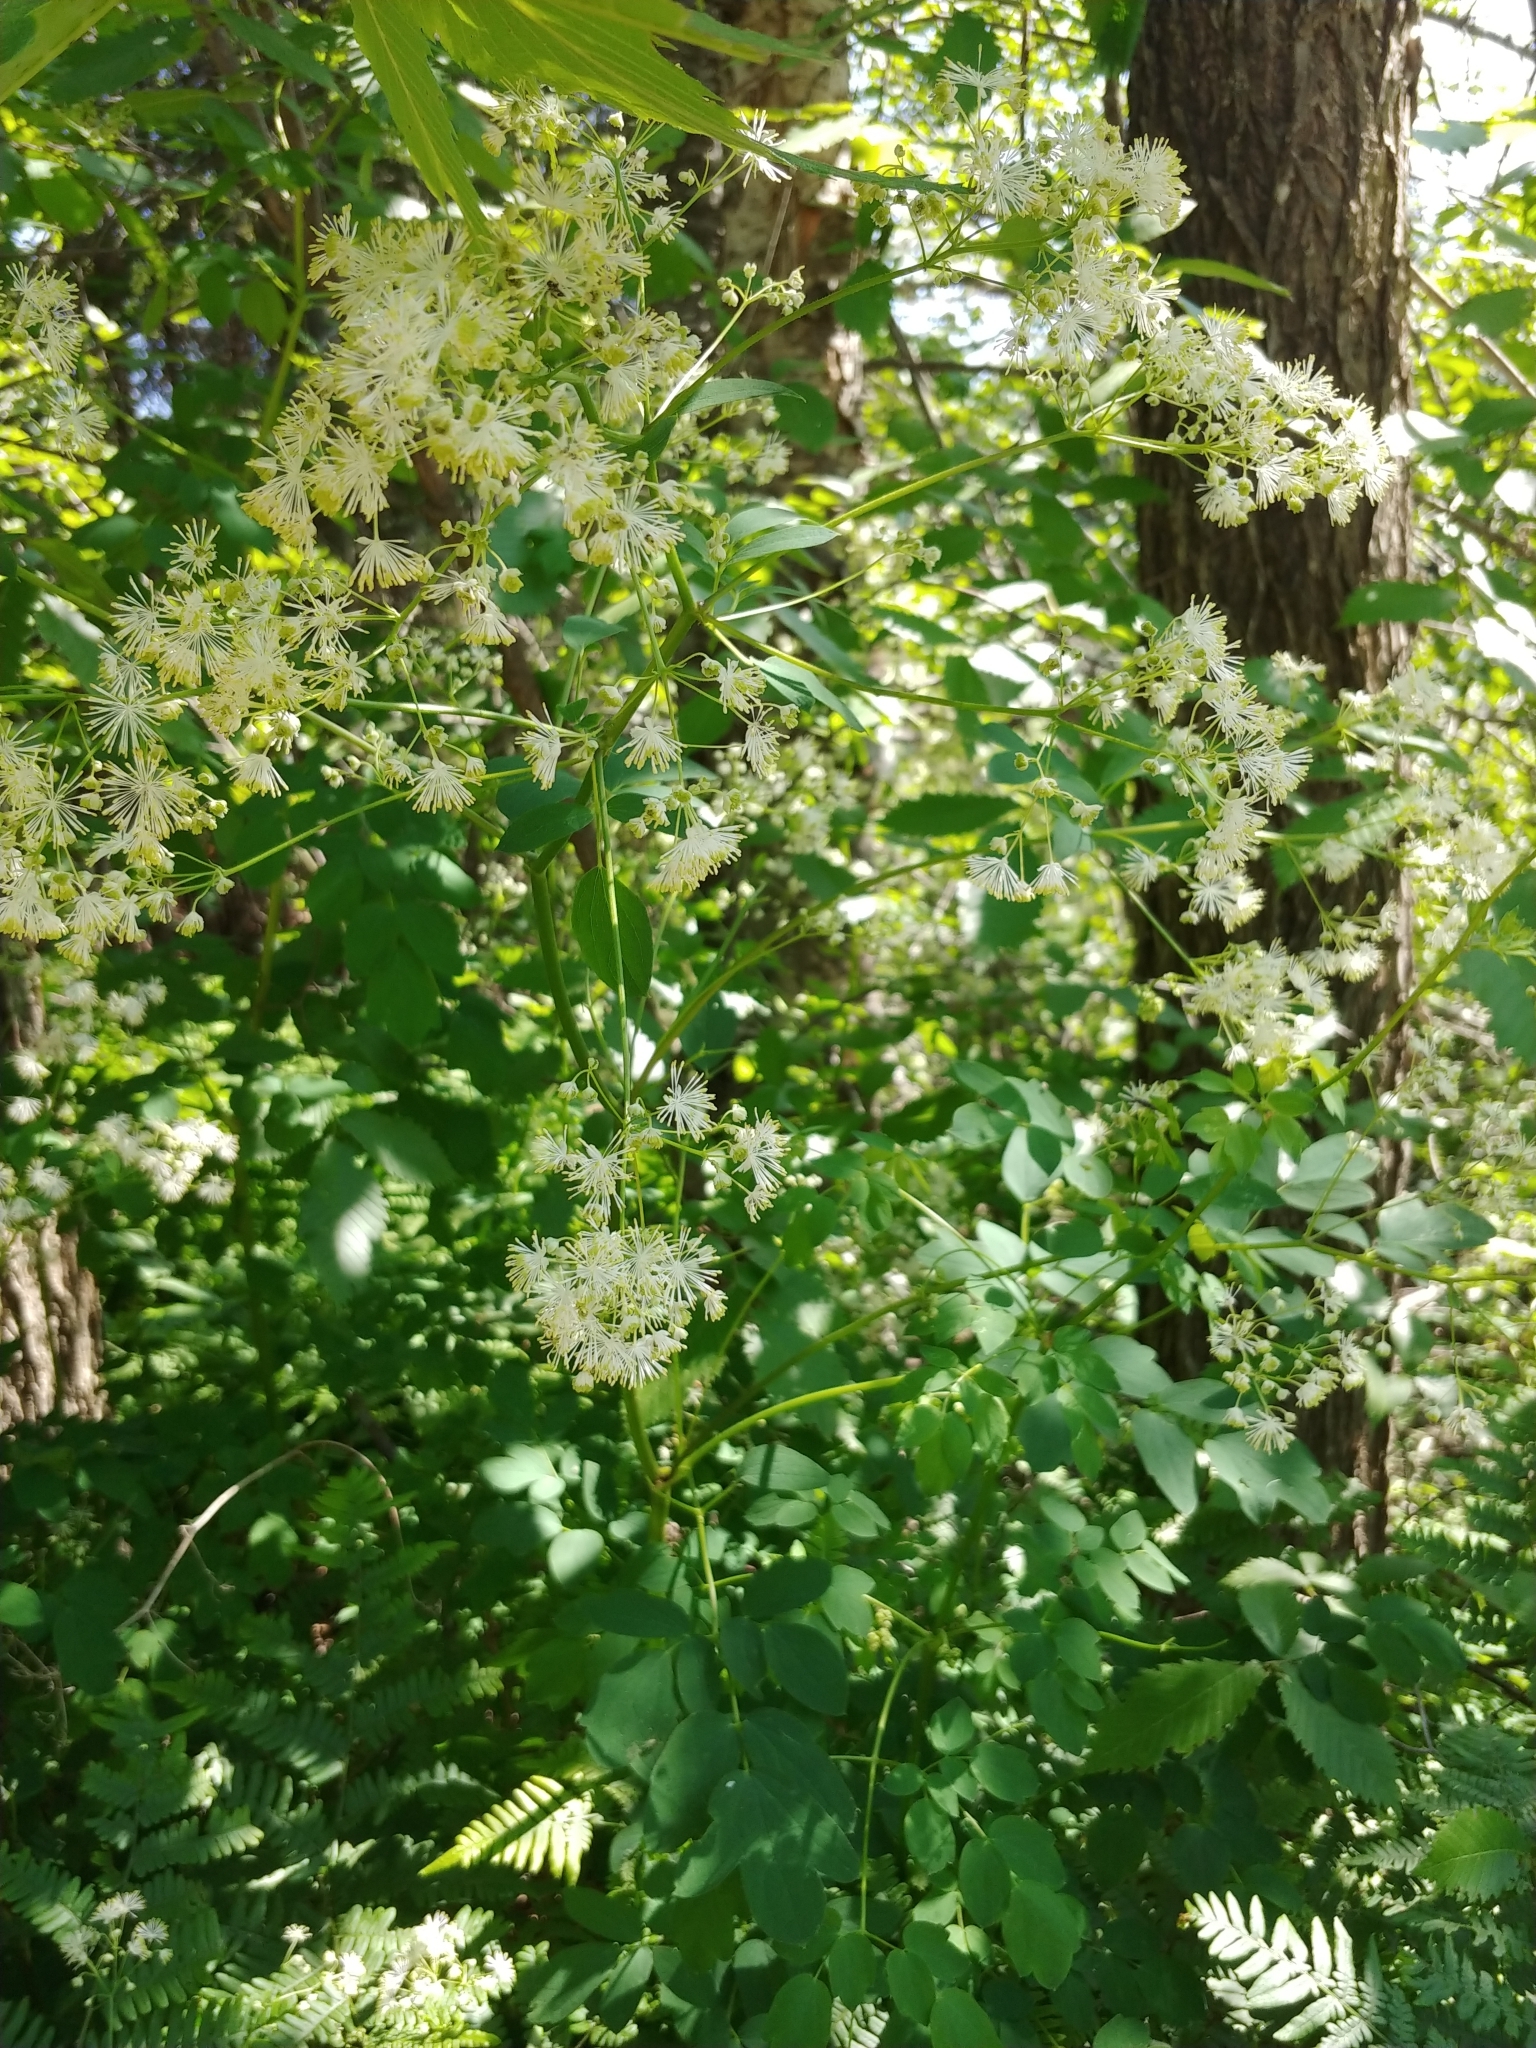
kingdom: Plantae
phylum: Tracheophyta
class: Magnoliopsida
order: Ranunculales
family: Ranunculaceae
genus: Thalictrum
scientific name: Thalictrum pubescens
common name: King-of-the-meadow
